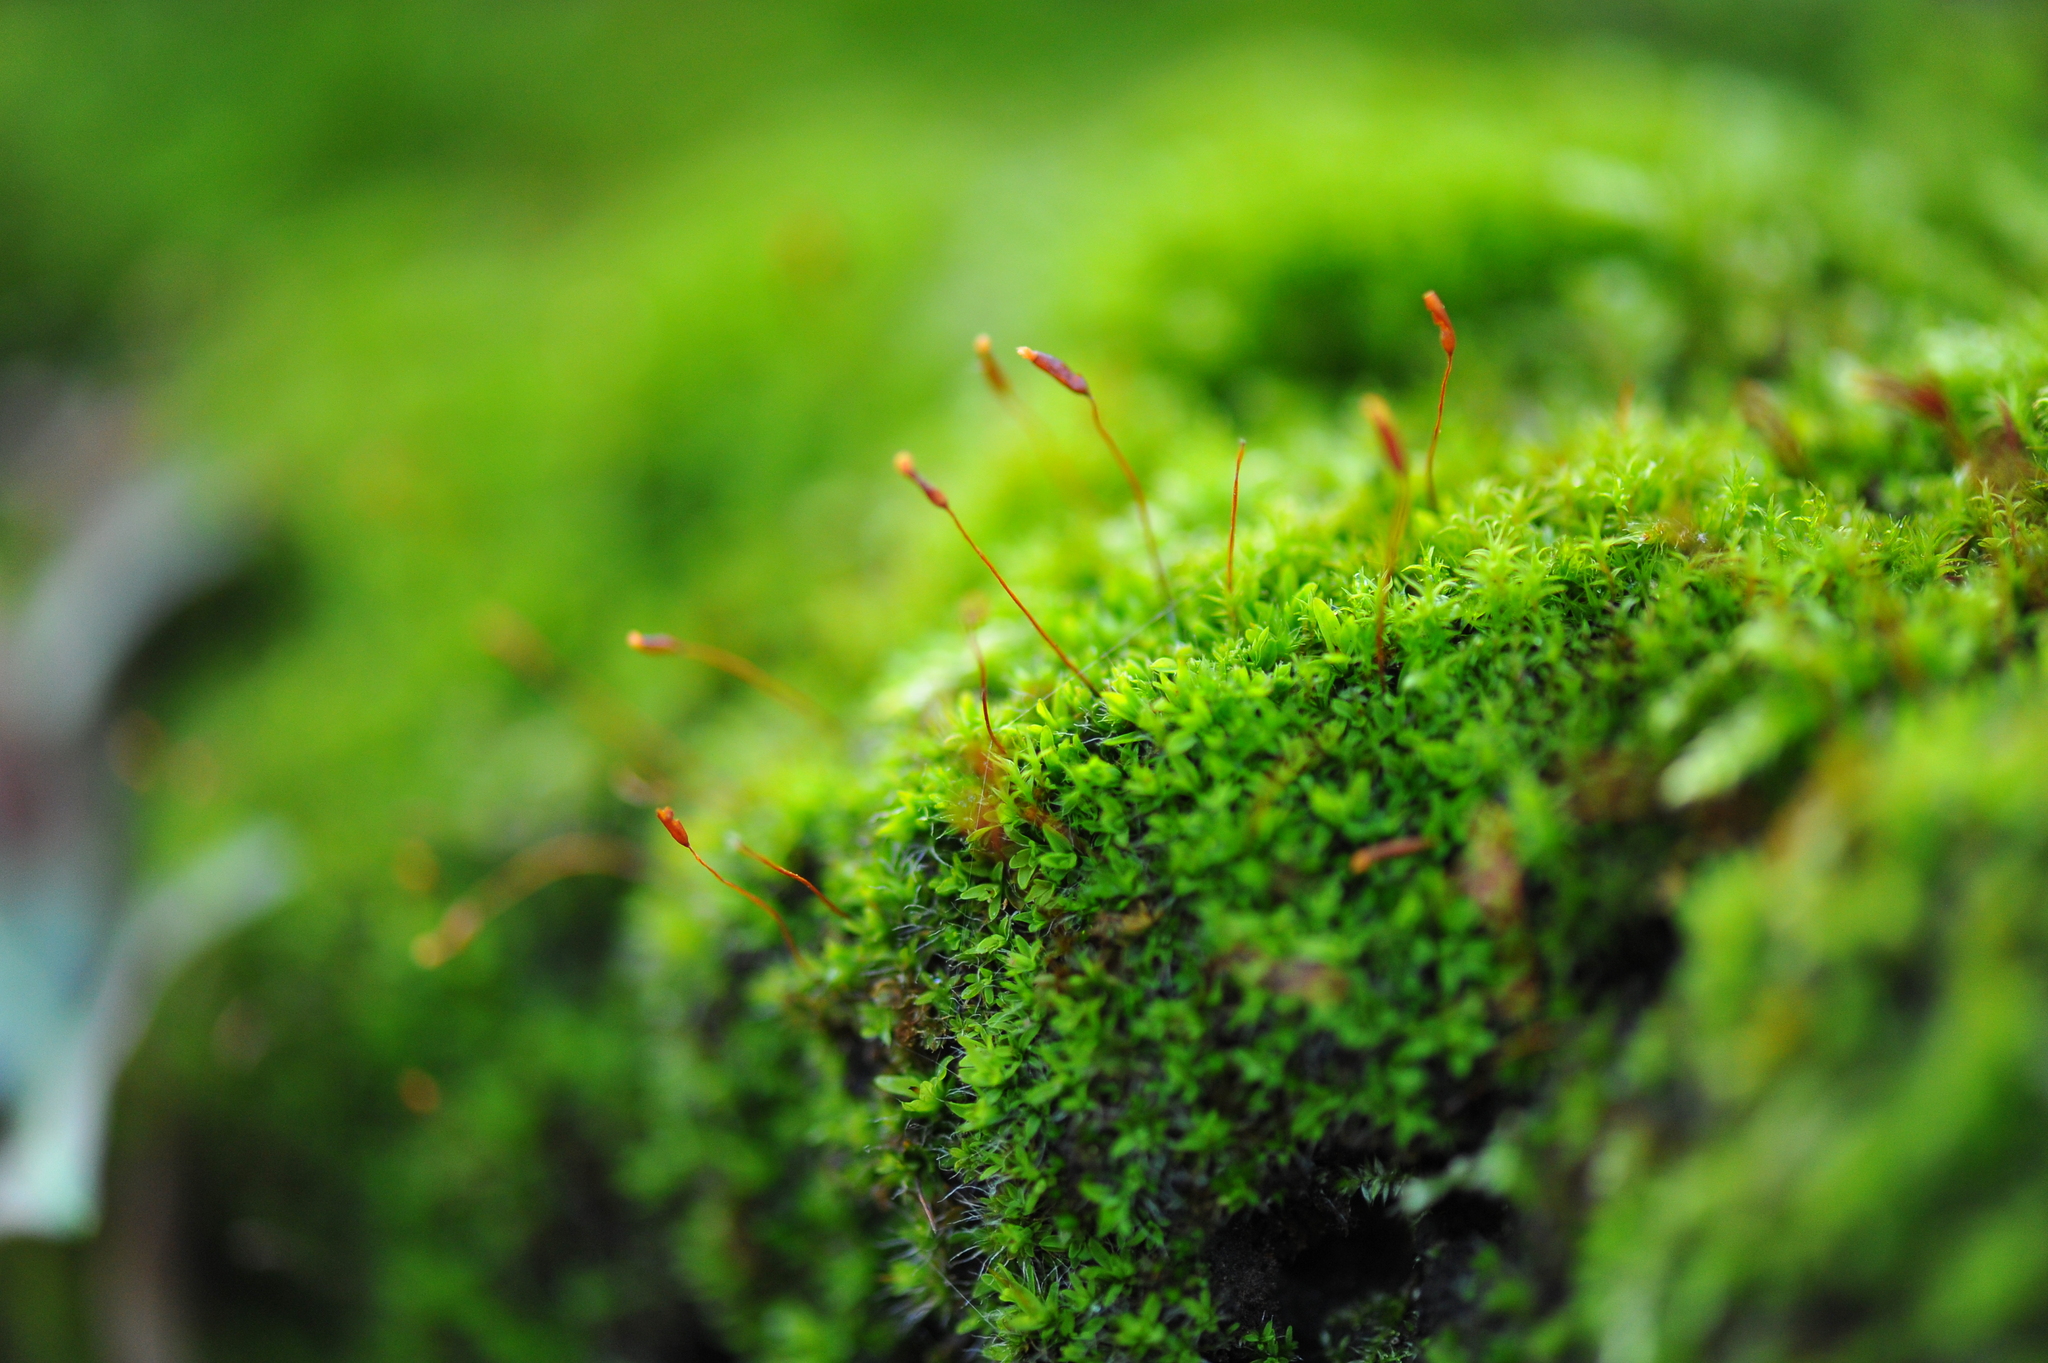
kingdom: Plantae
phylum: Bryophyta
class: Bryopsida
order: Pottiales
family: Pottiaceae
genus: Tortula
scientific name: Tortula muralis
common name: Wall screw-moss
